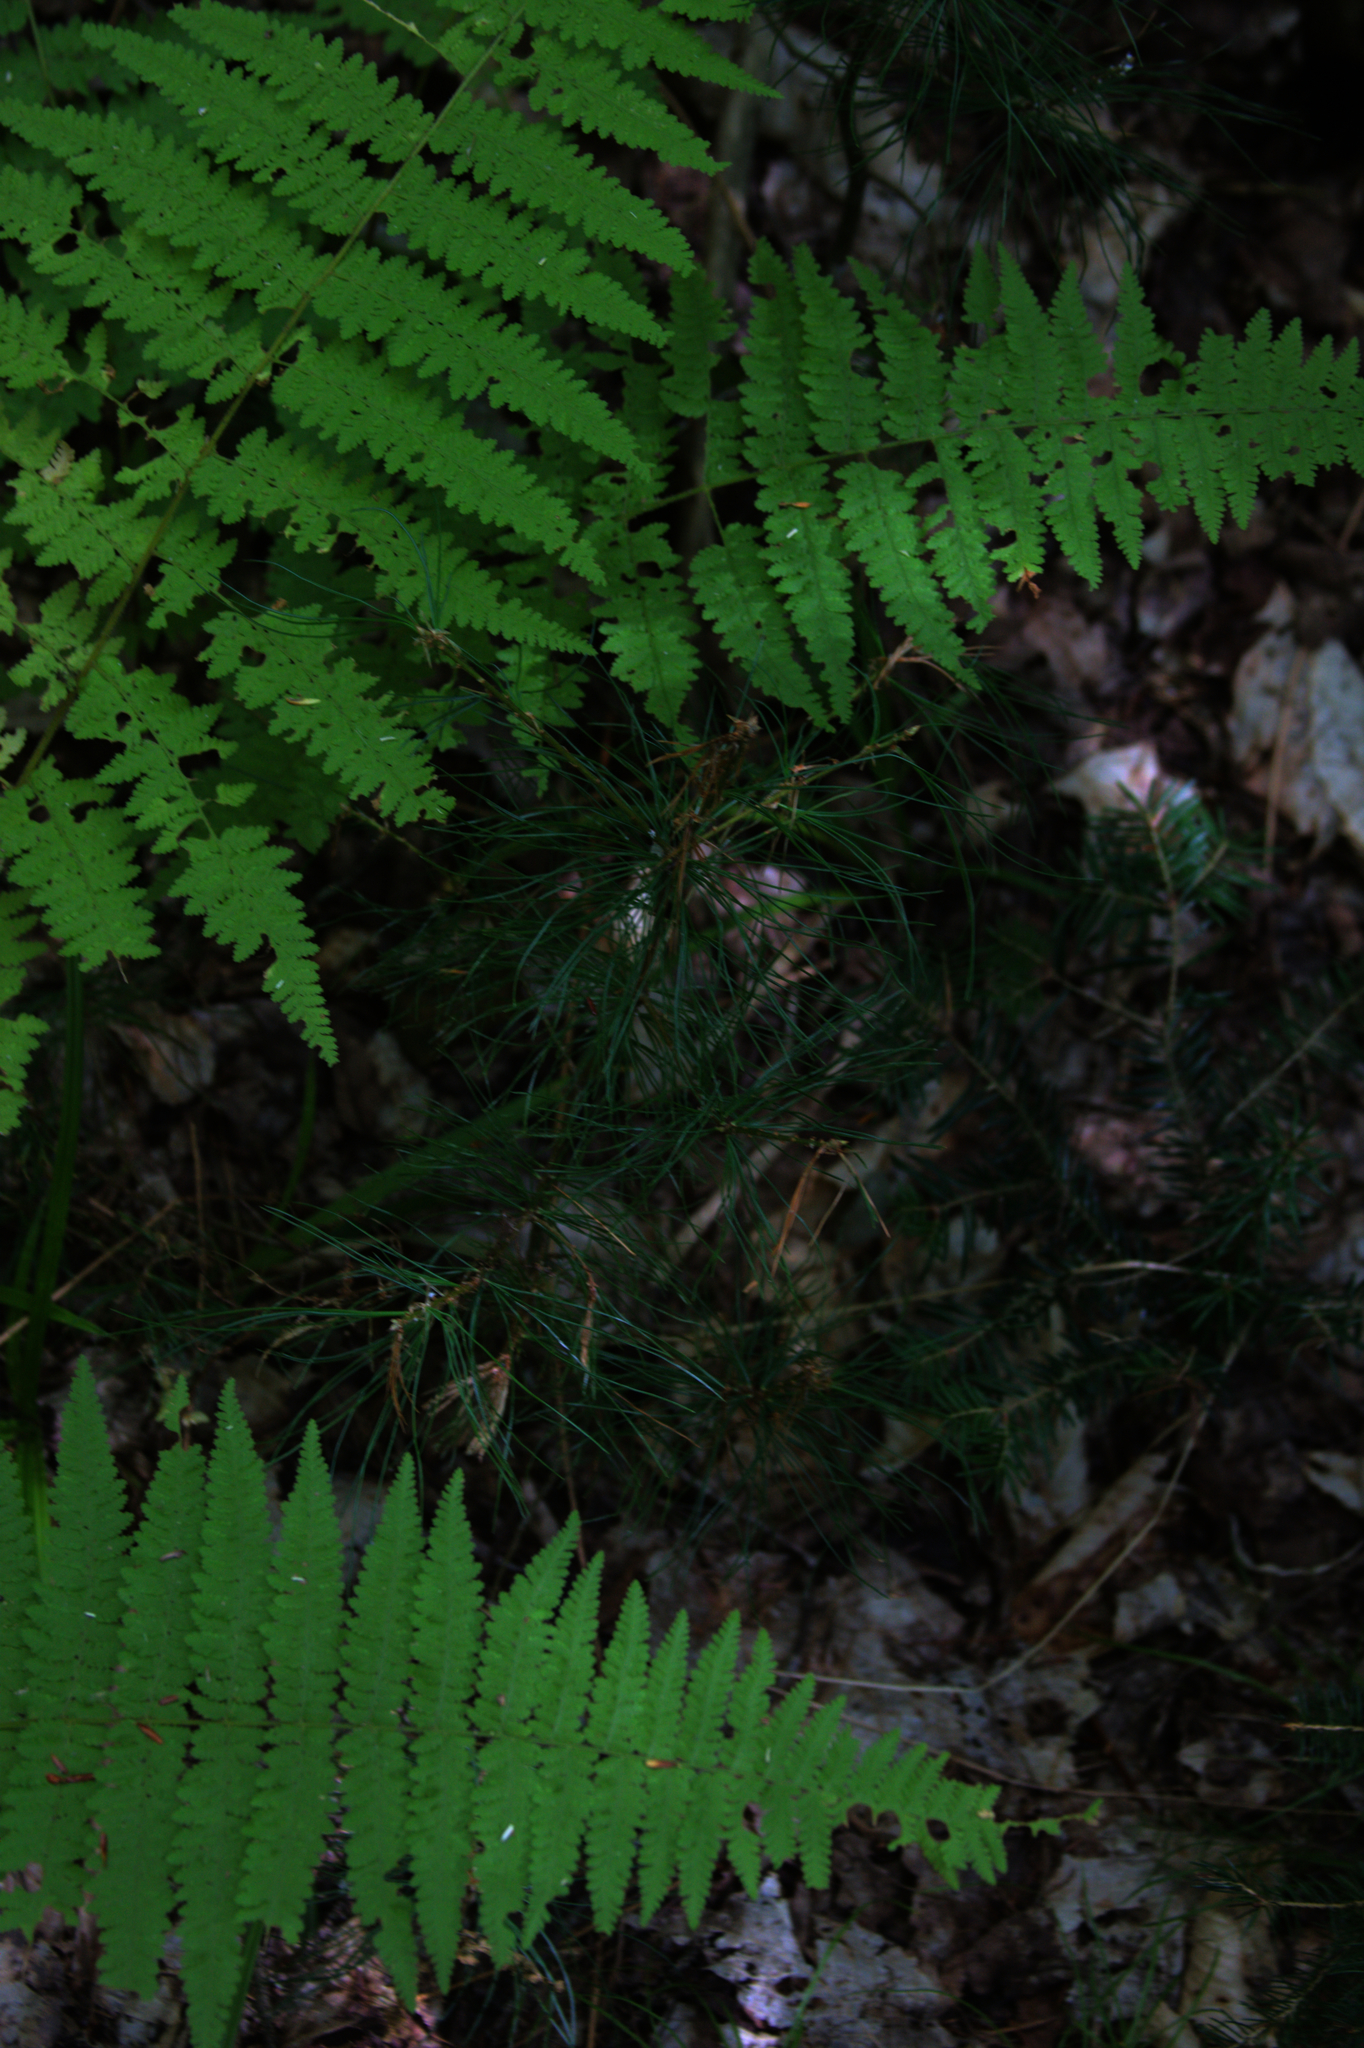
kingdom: Plantae
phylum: Tracheophyta
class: Pinopsida
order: Pinales
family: Pinaceae
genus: Pinus
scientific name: Pinus strobus
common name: Weymouth pine
